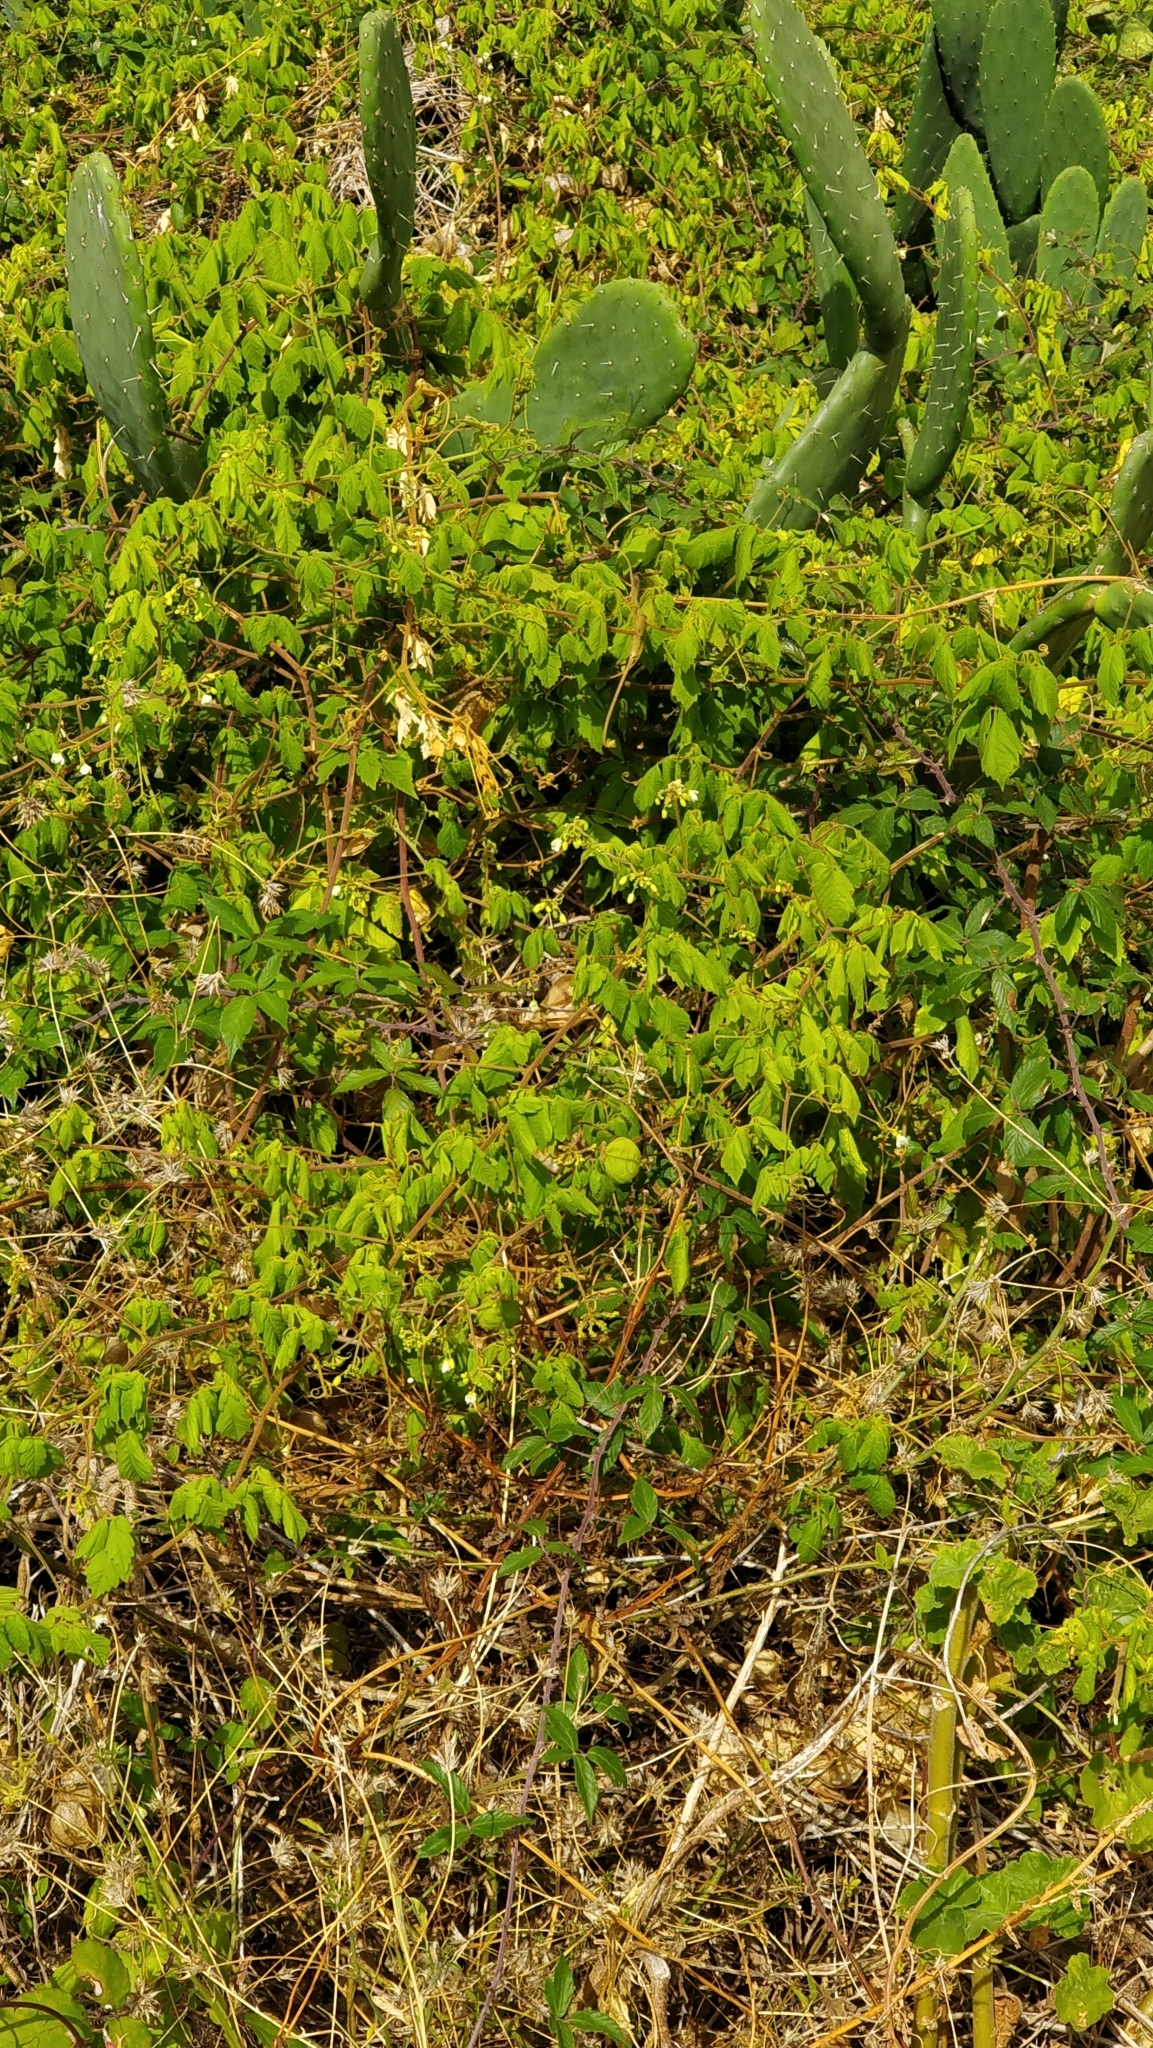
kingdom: Plantae
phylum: Tracheophyta
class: Magnoliopsida
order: Sapindales
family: Sapindaceae
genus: Cardiospermum
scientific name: Cardiospermum grandiflorum
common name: Balloon vine
